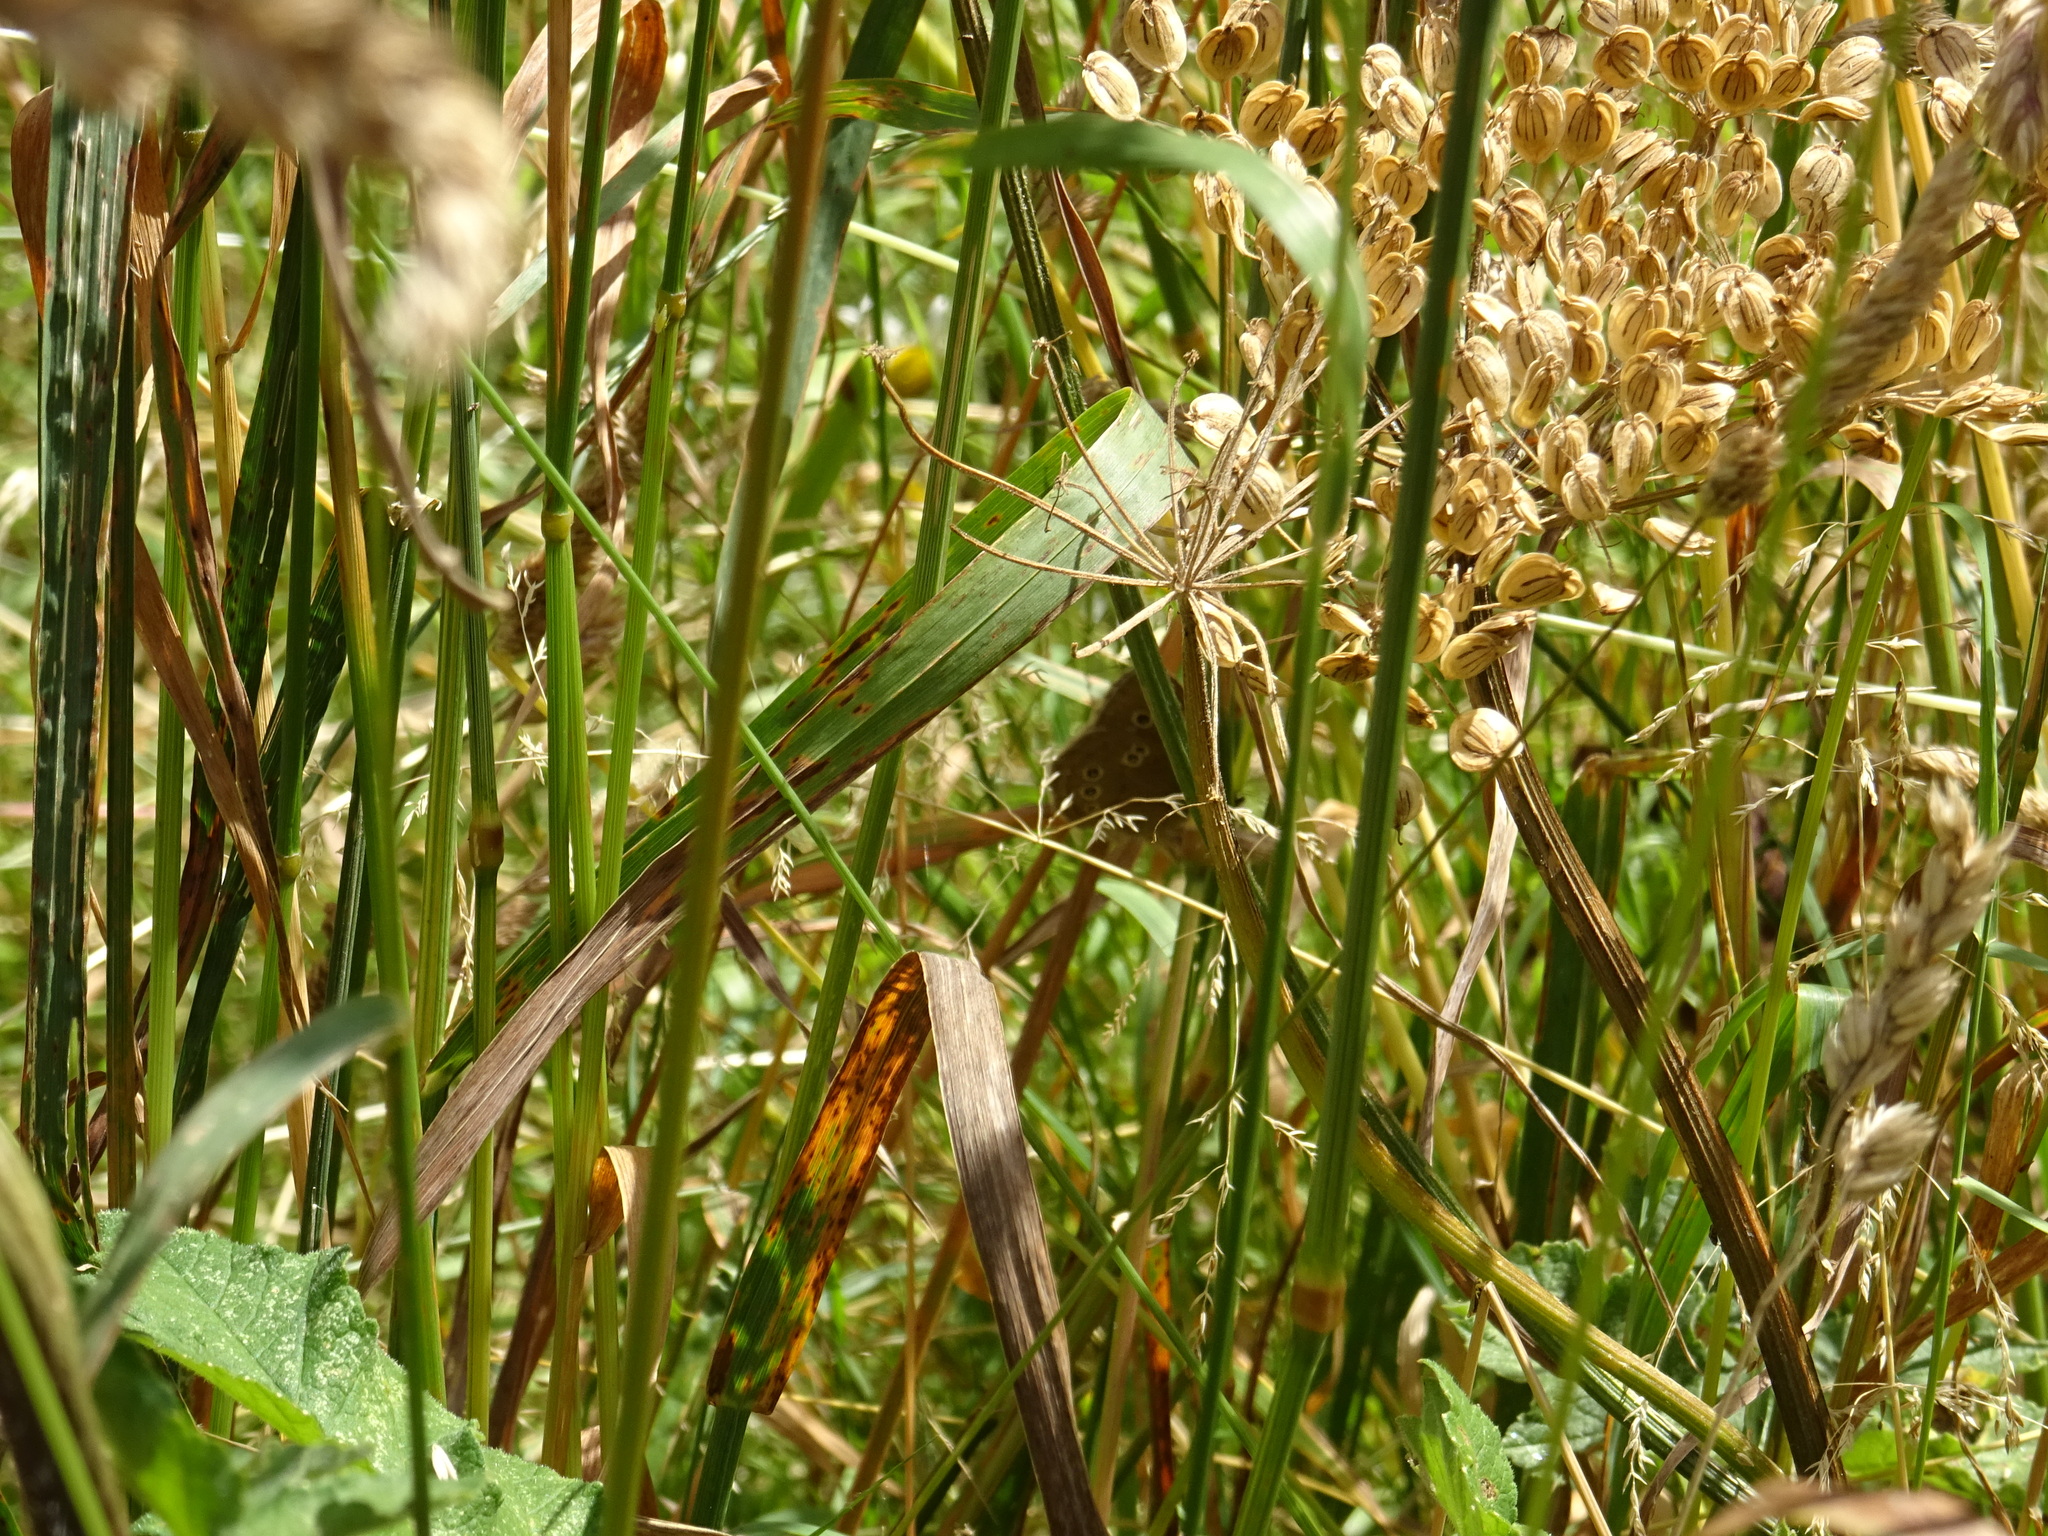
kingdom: Animalia
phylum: Arthropoda
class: Insecta
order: Lepidoptera
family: Nymphalidae
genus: Aphantopus
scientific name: Aphantopus hyperantus
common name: Ringlet
